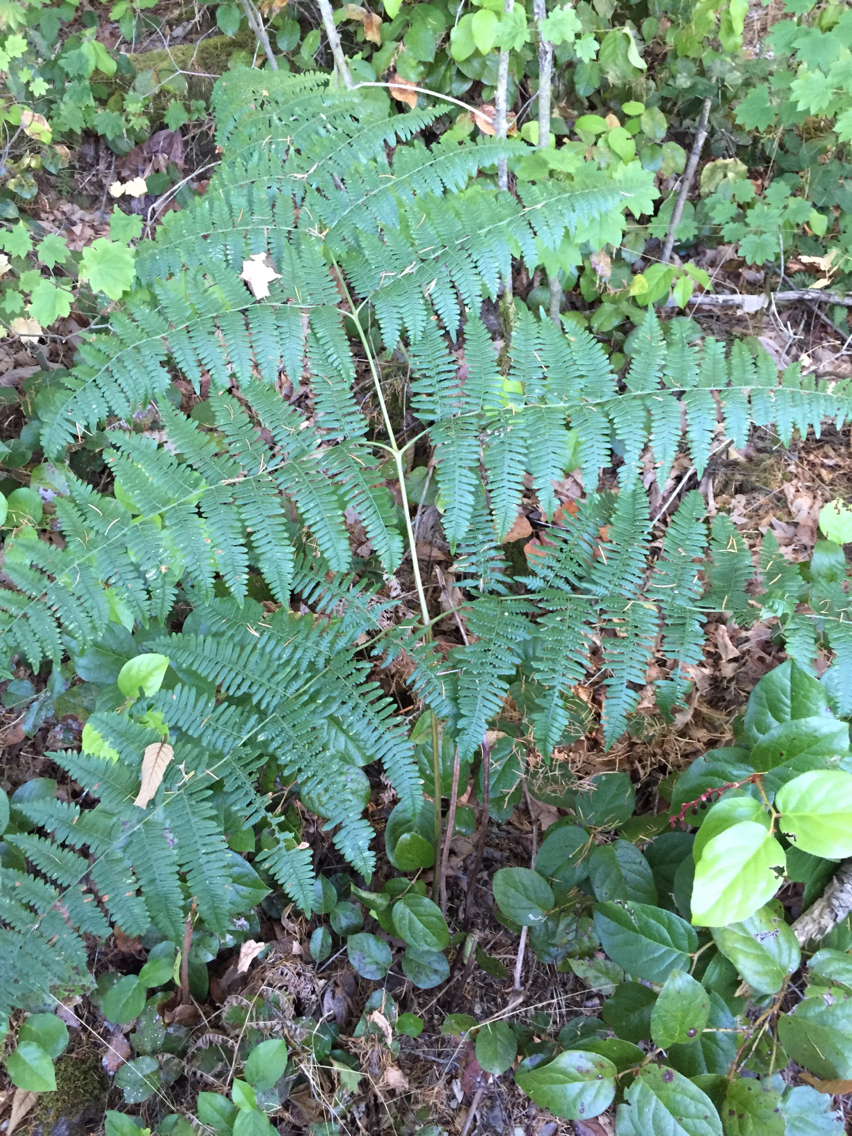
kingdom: Plantae
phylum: Tracheophyta
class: Polypodiopsida
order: Polypodiales
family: Dennstaedtiaceae
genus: Pteridium
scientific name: Pteridium aquilinum
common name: Bracken
